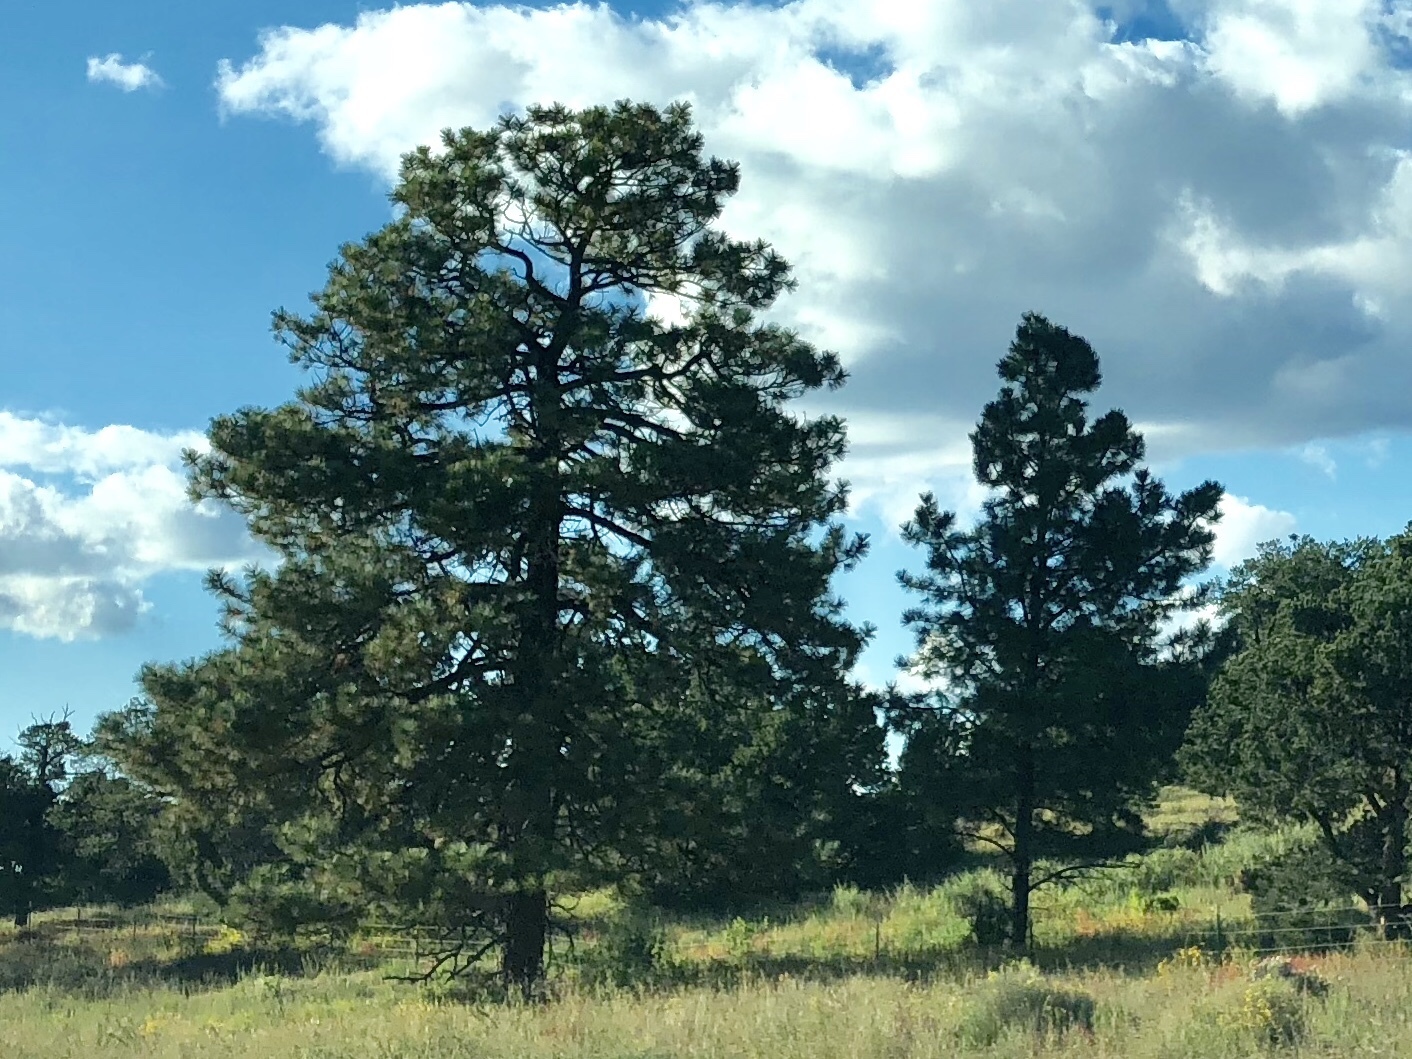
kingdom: Plantae
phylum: Tracheophyta
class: Pinopsida
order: Pinales
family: Pinaceae
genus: Pinus
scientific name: Pinus ponderosa
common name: Western yellow-pine
